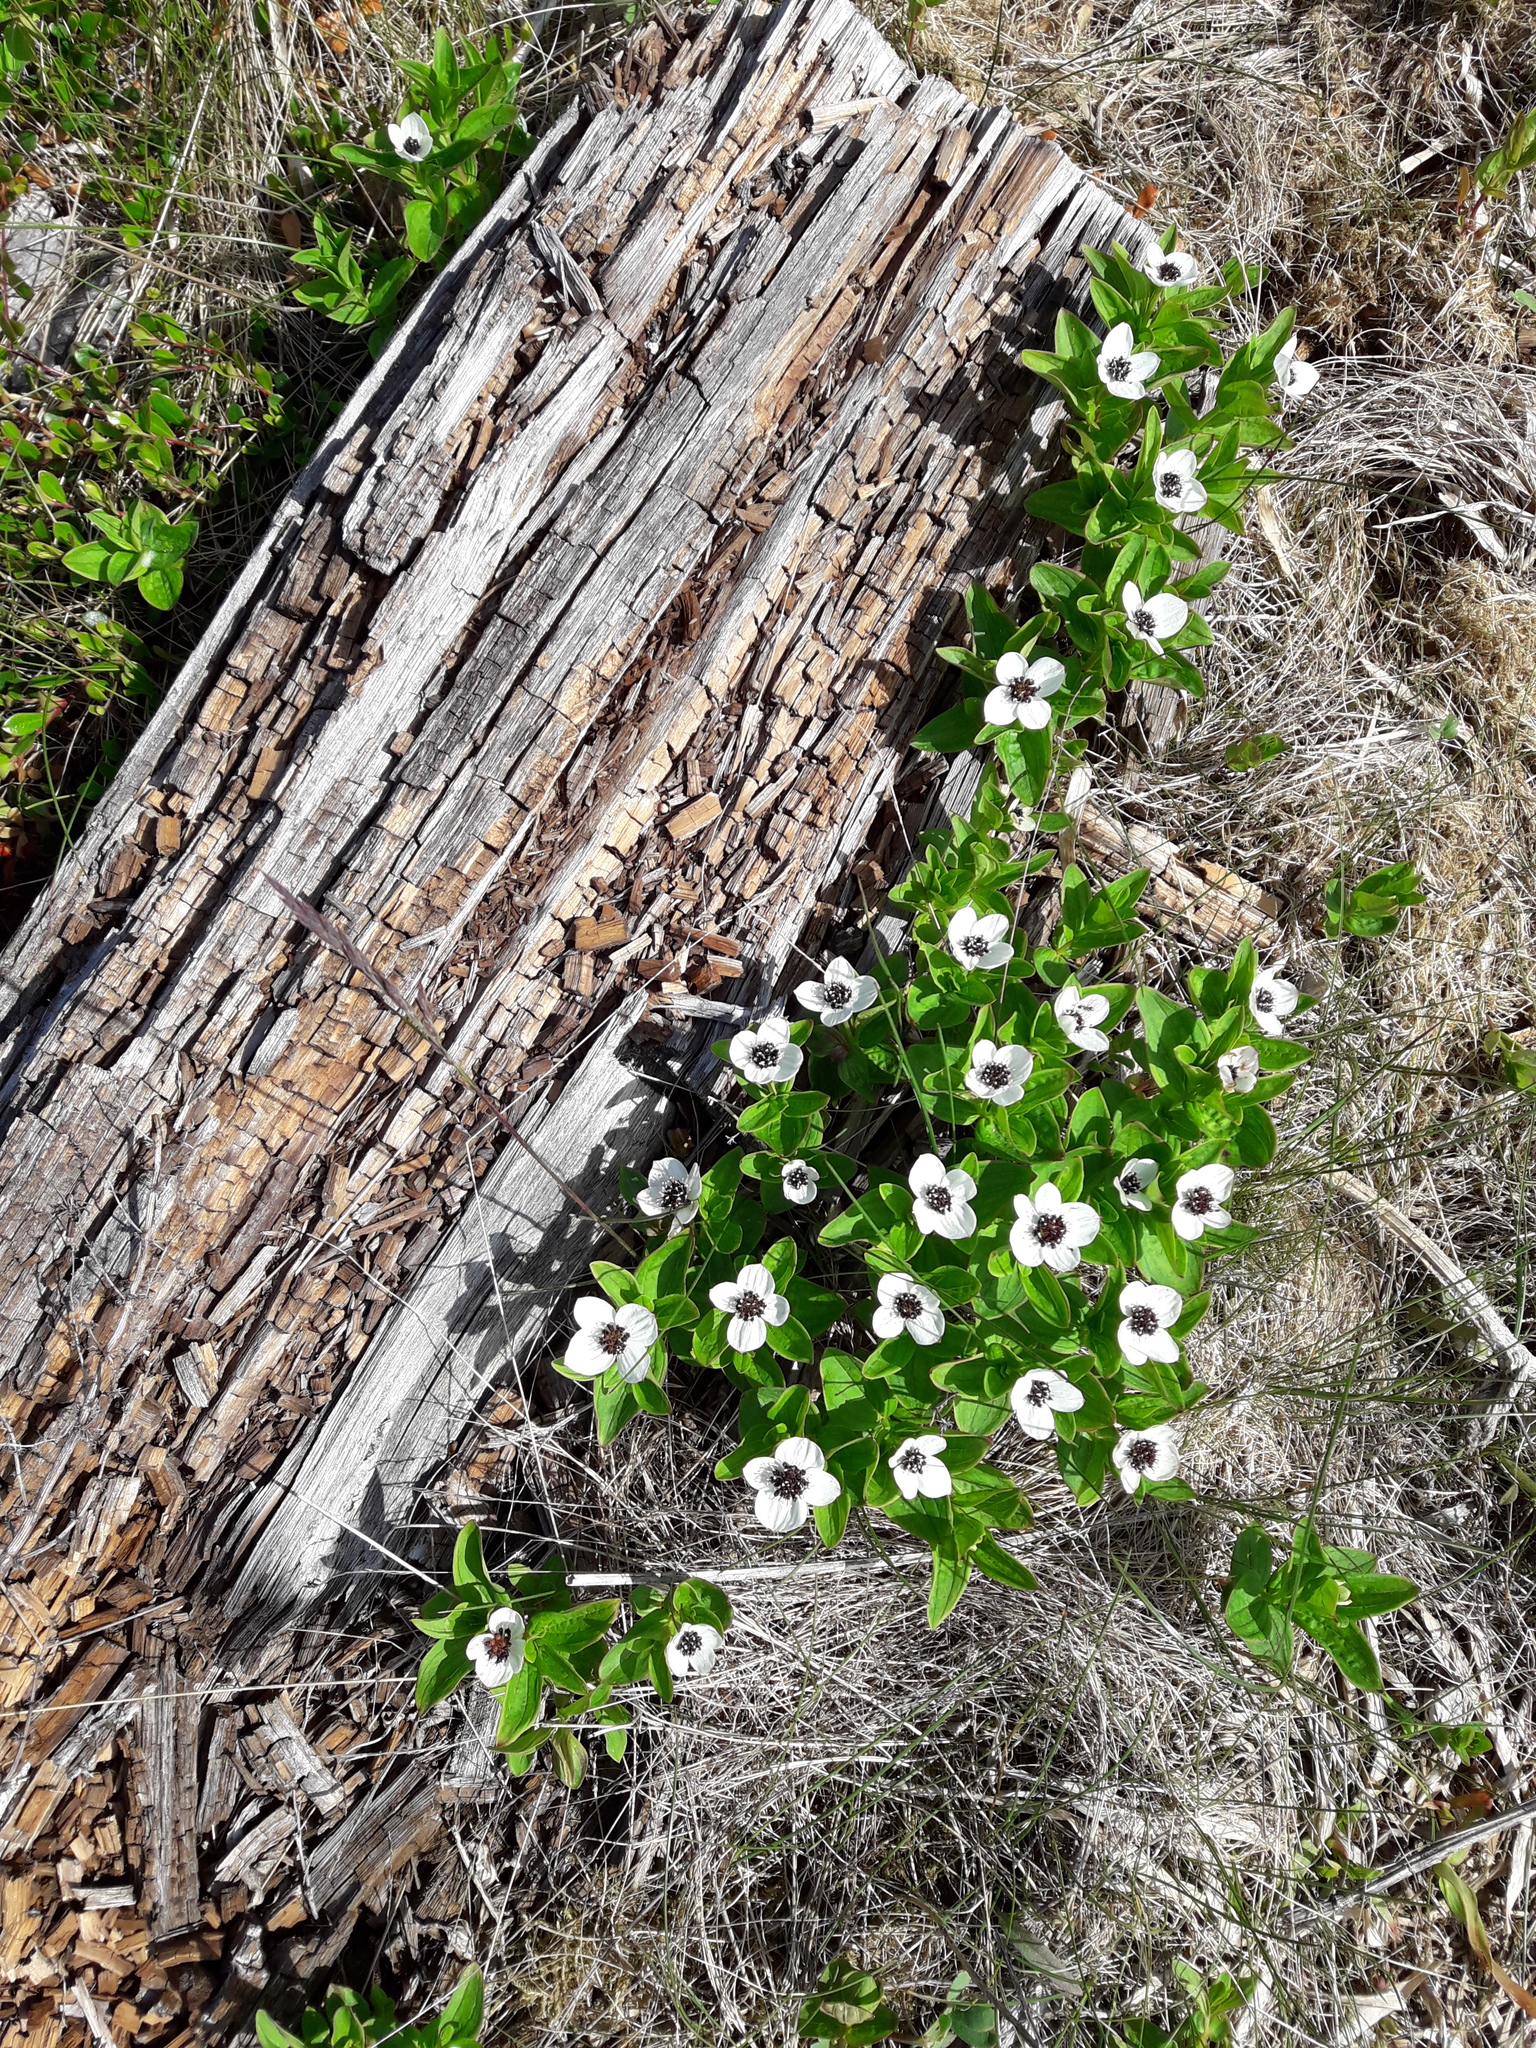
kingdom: Plantae
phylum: Tracheophyta
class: Magnoliopsida
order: Cornales
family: Cornaceae
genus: Cornus
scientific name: Cornus suecica
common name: Dwarf cornel
